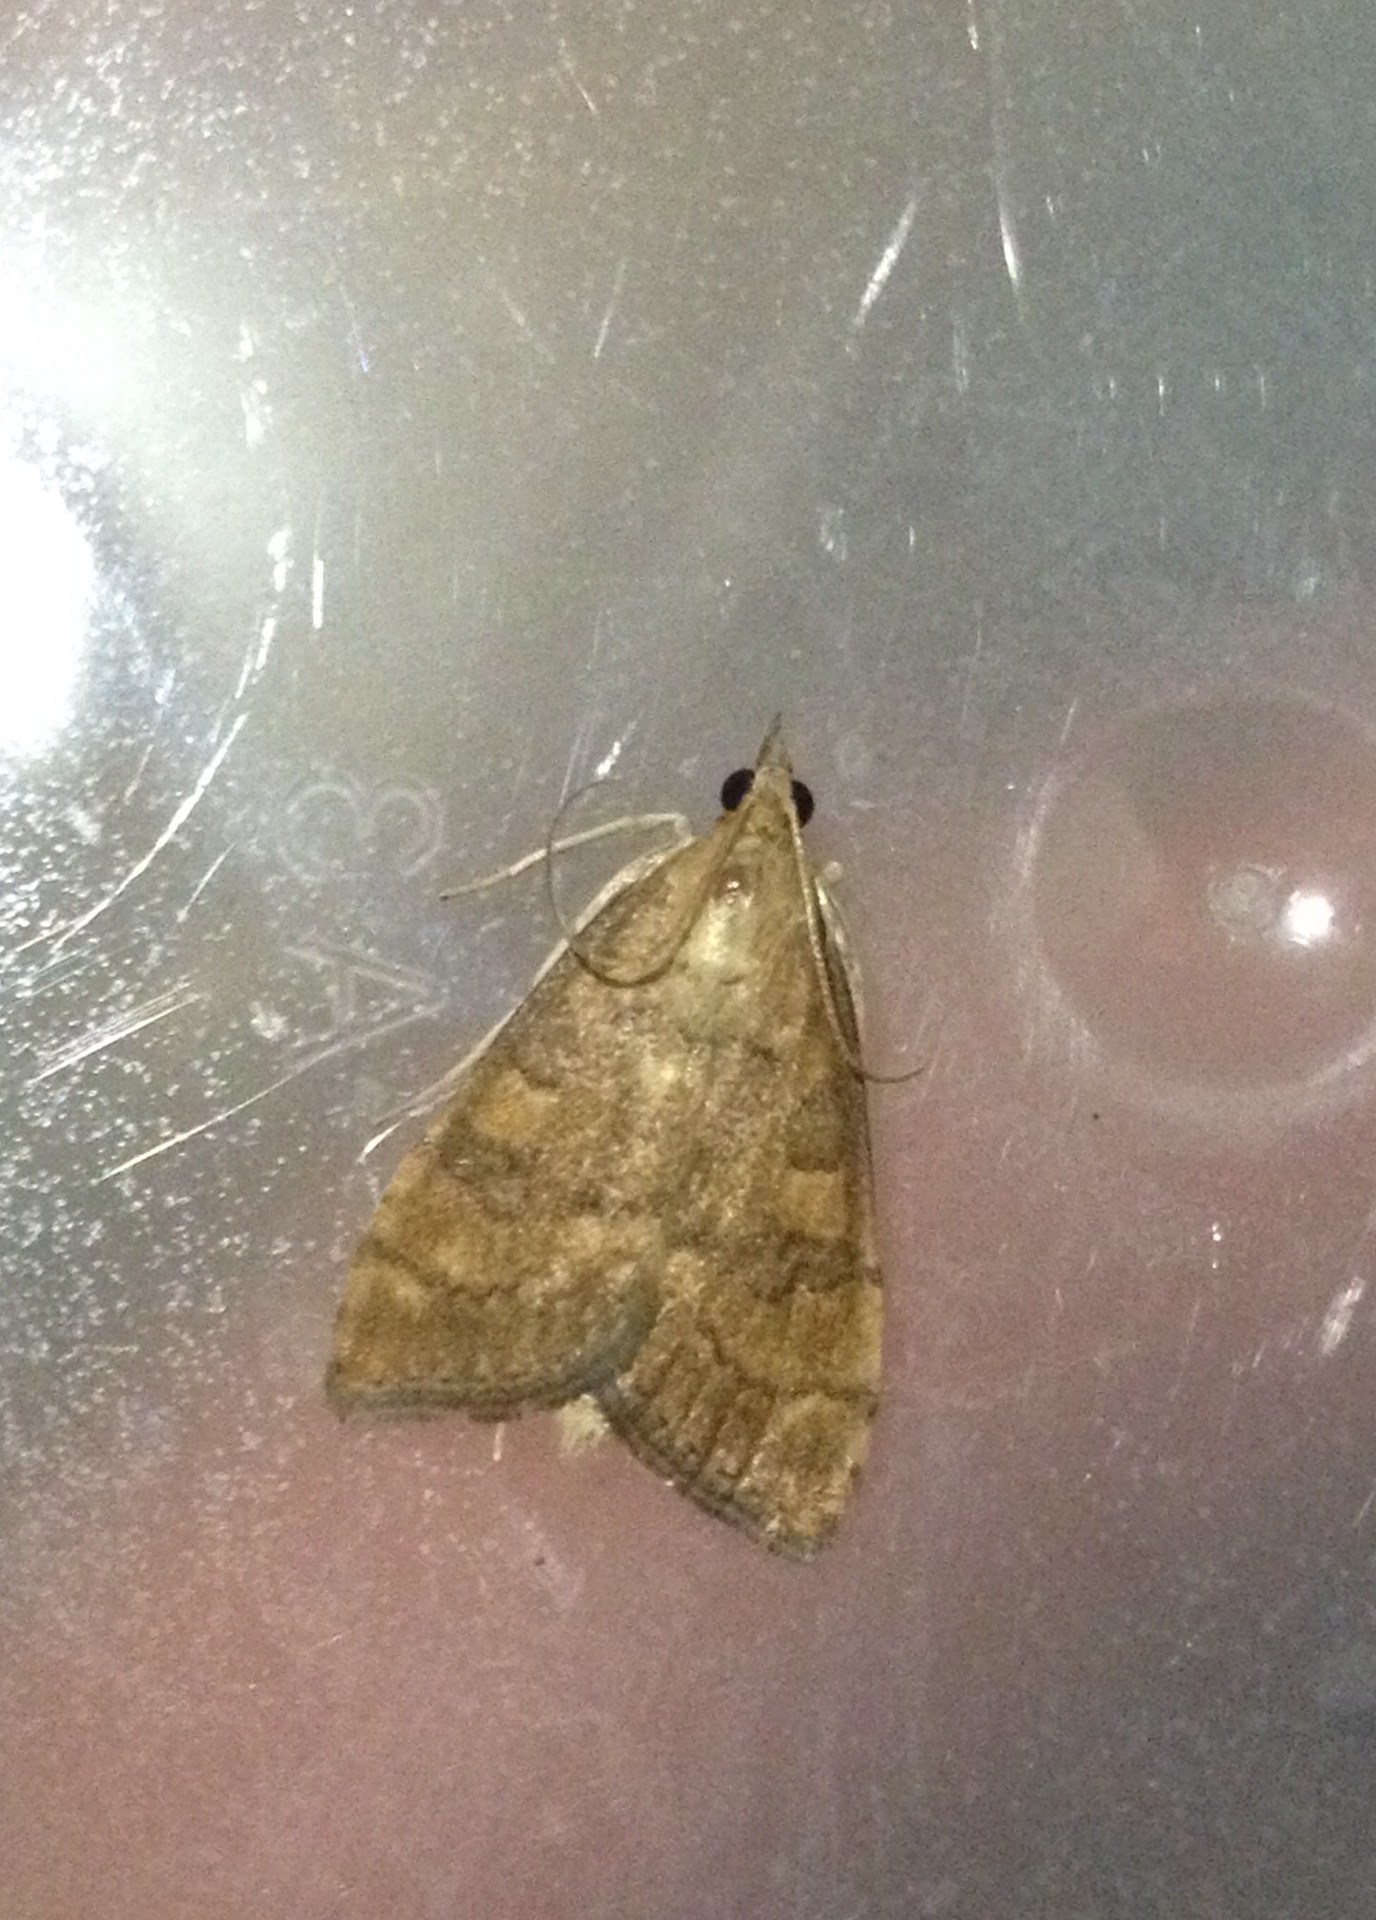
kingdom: Animalia
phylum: Arthropoda
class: Insecta
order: Lepidoptera
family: Crambidae
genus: Udea
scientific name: Udea fulvalis
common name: Fulvous pearl
